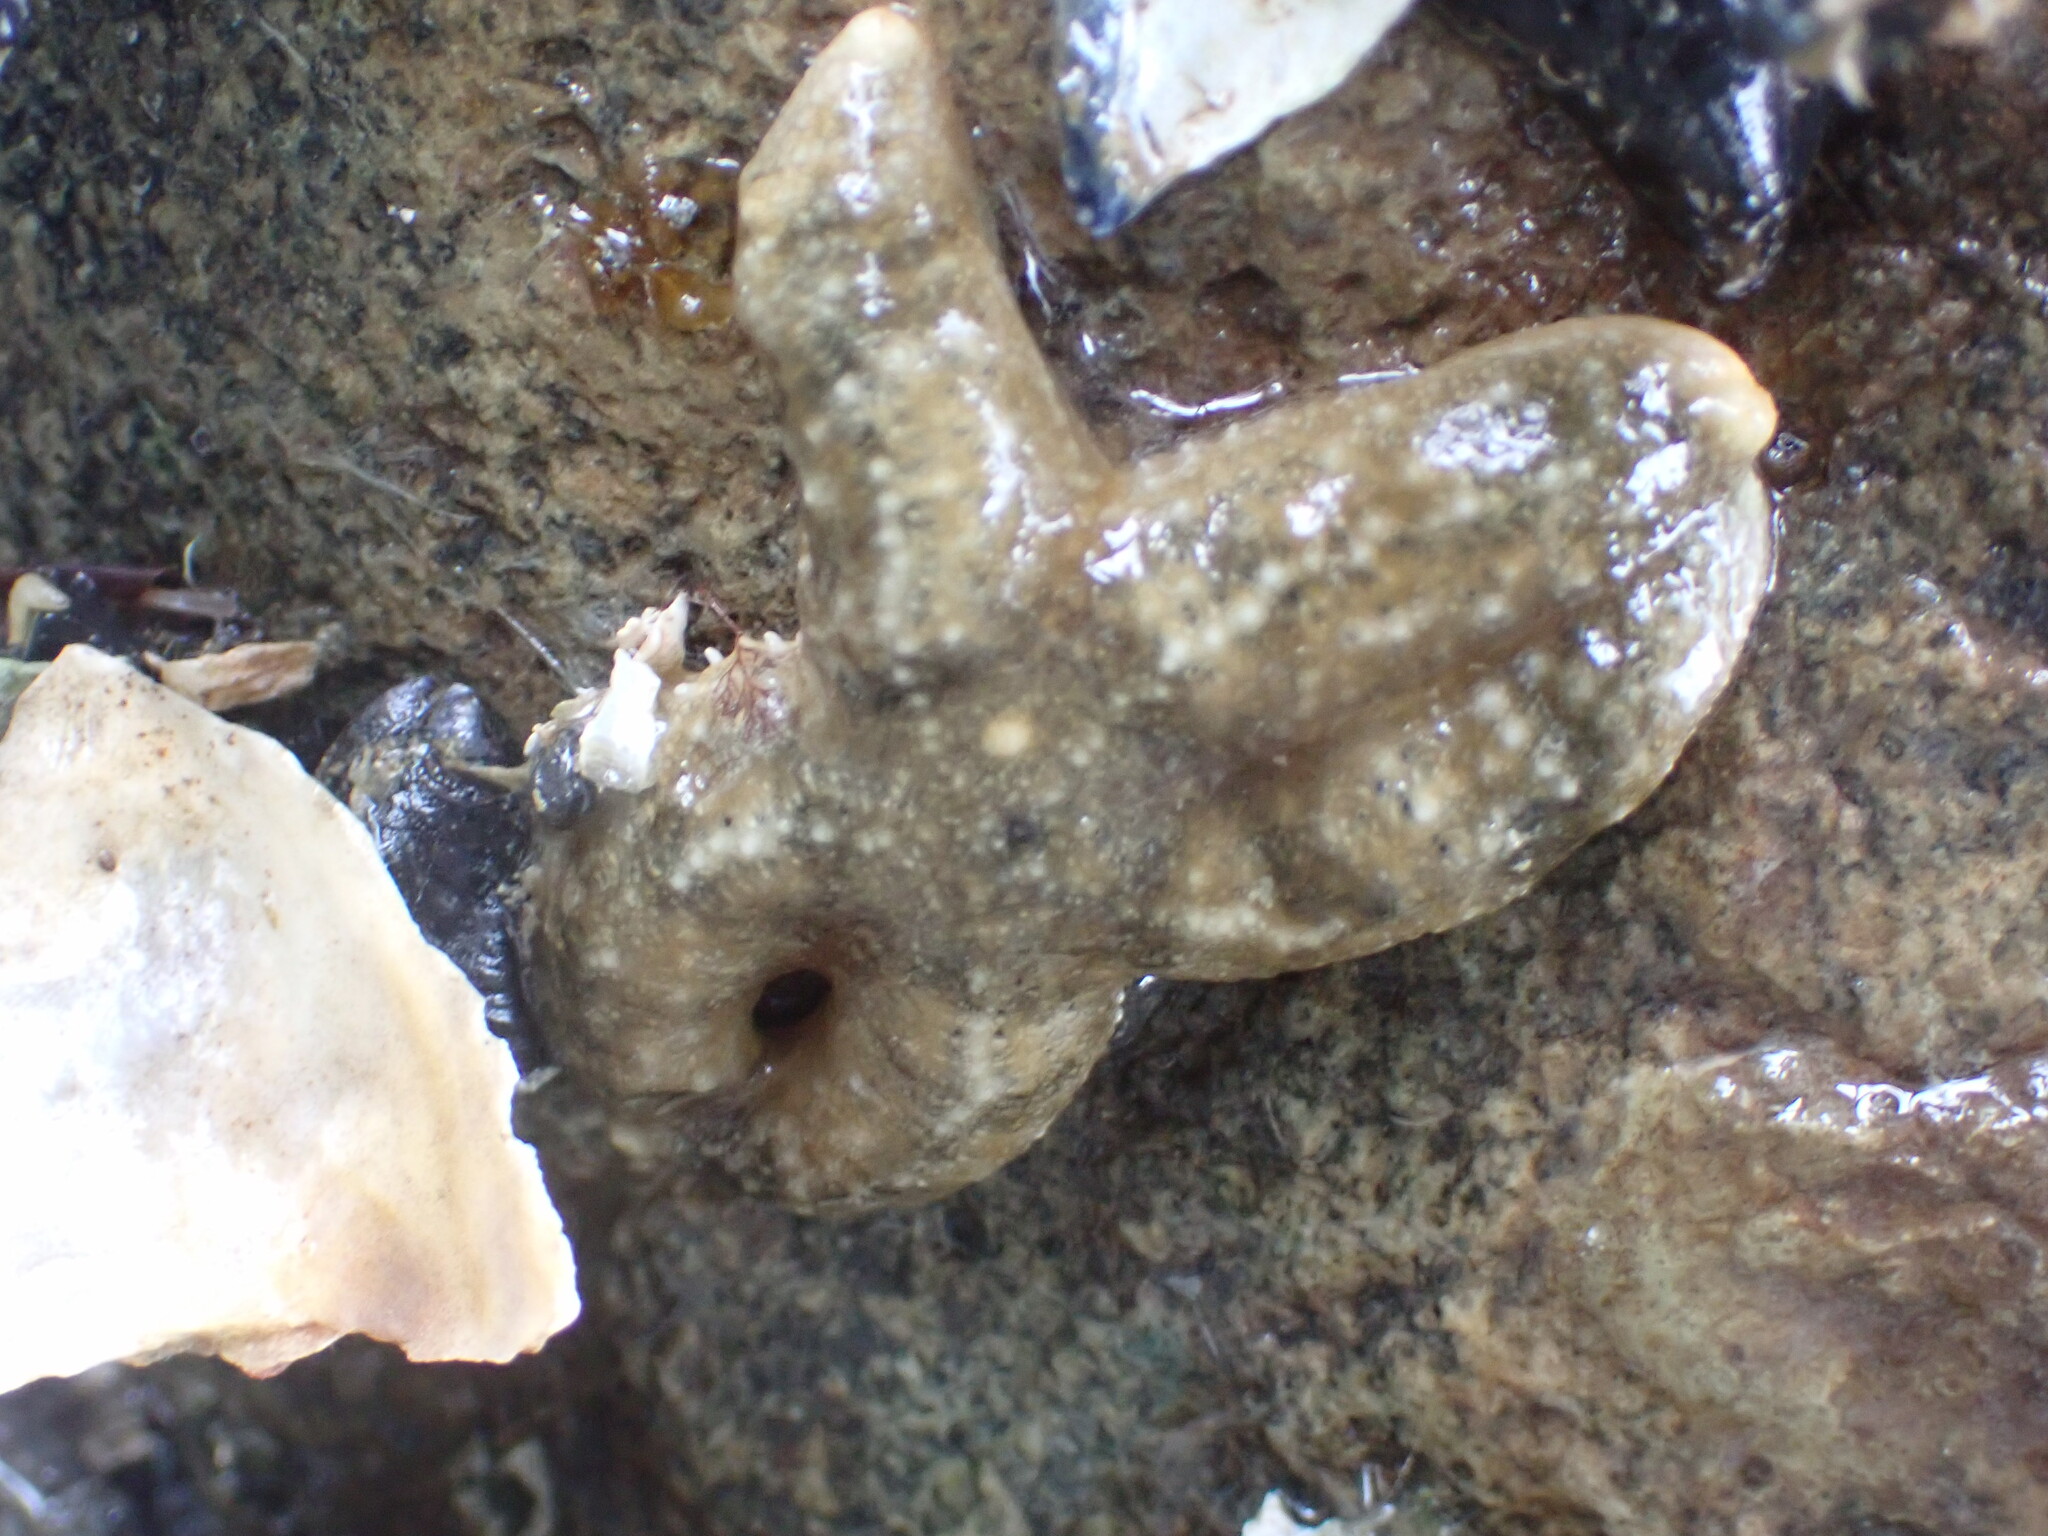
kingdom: Animalia
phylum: Echinodermata
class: Asteroidea
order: Forcipulatida
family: Asteriidae
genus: Evasterias
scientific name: Evasterias troschelii
